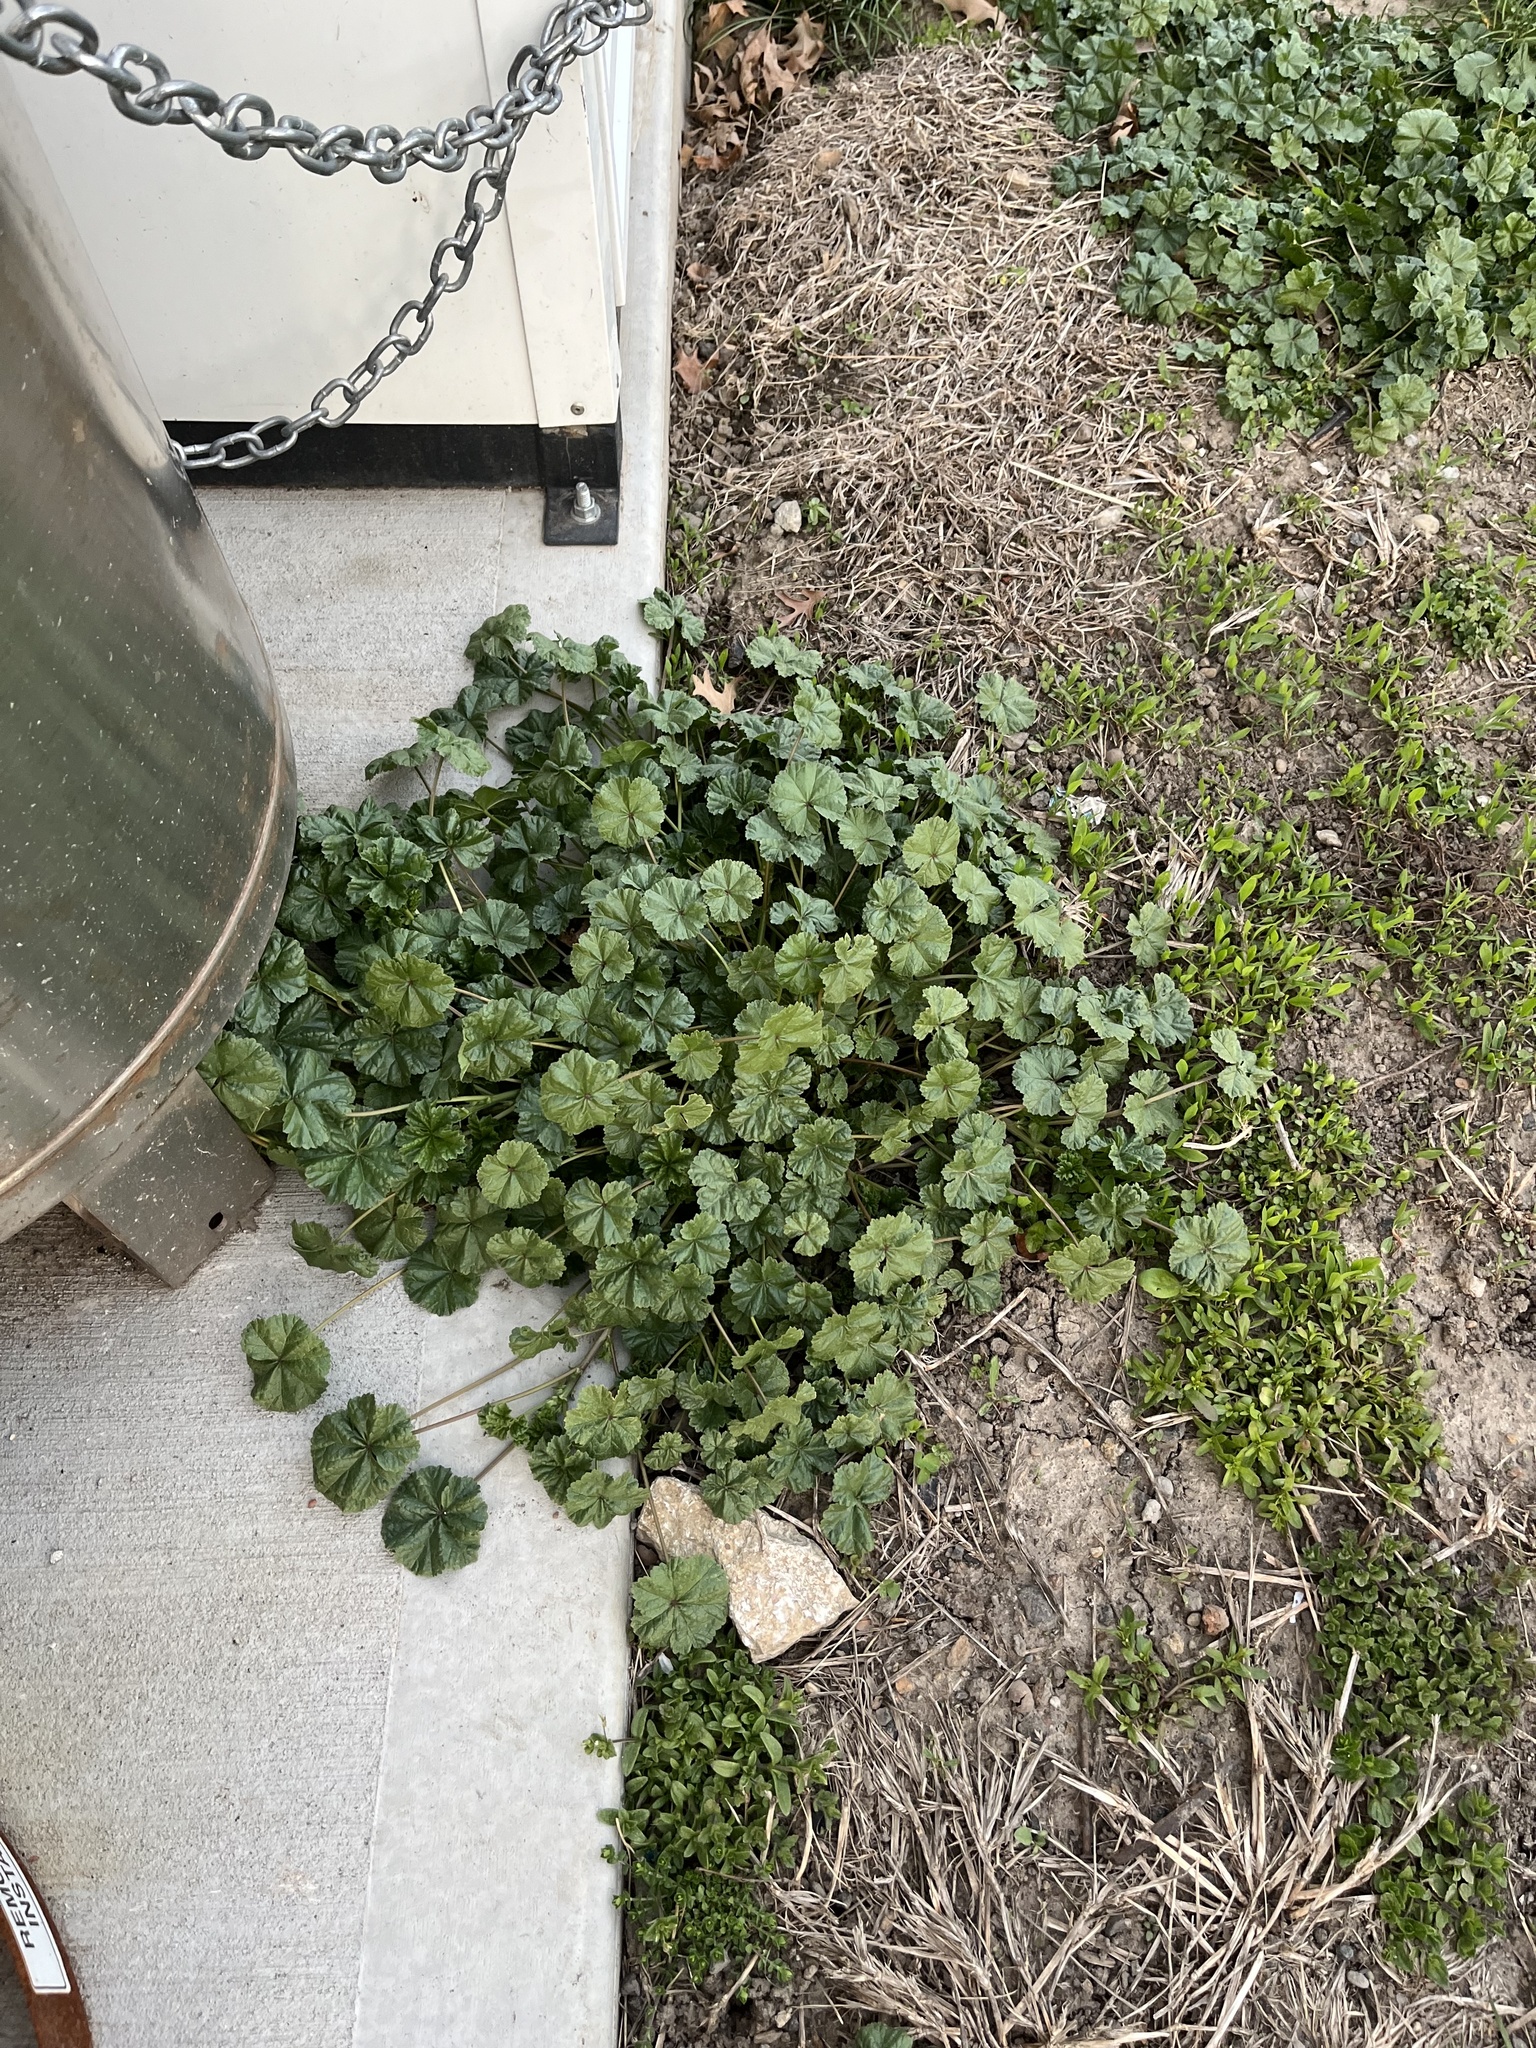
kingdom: Plantae
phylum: Tracheophyta
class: Magnoliopsida
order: Malvales
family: Malvaceae
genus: Malva
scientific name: Malva neglecta
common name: Common mallow
